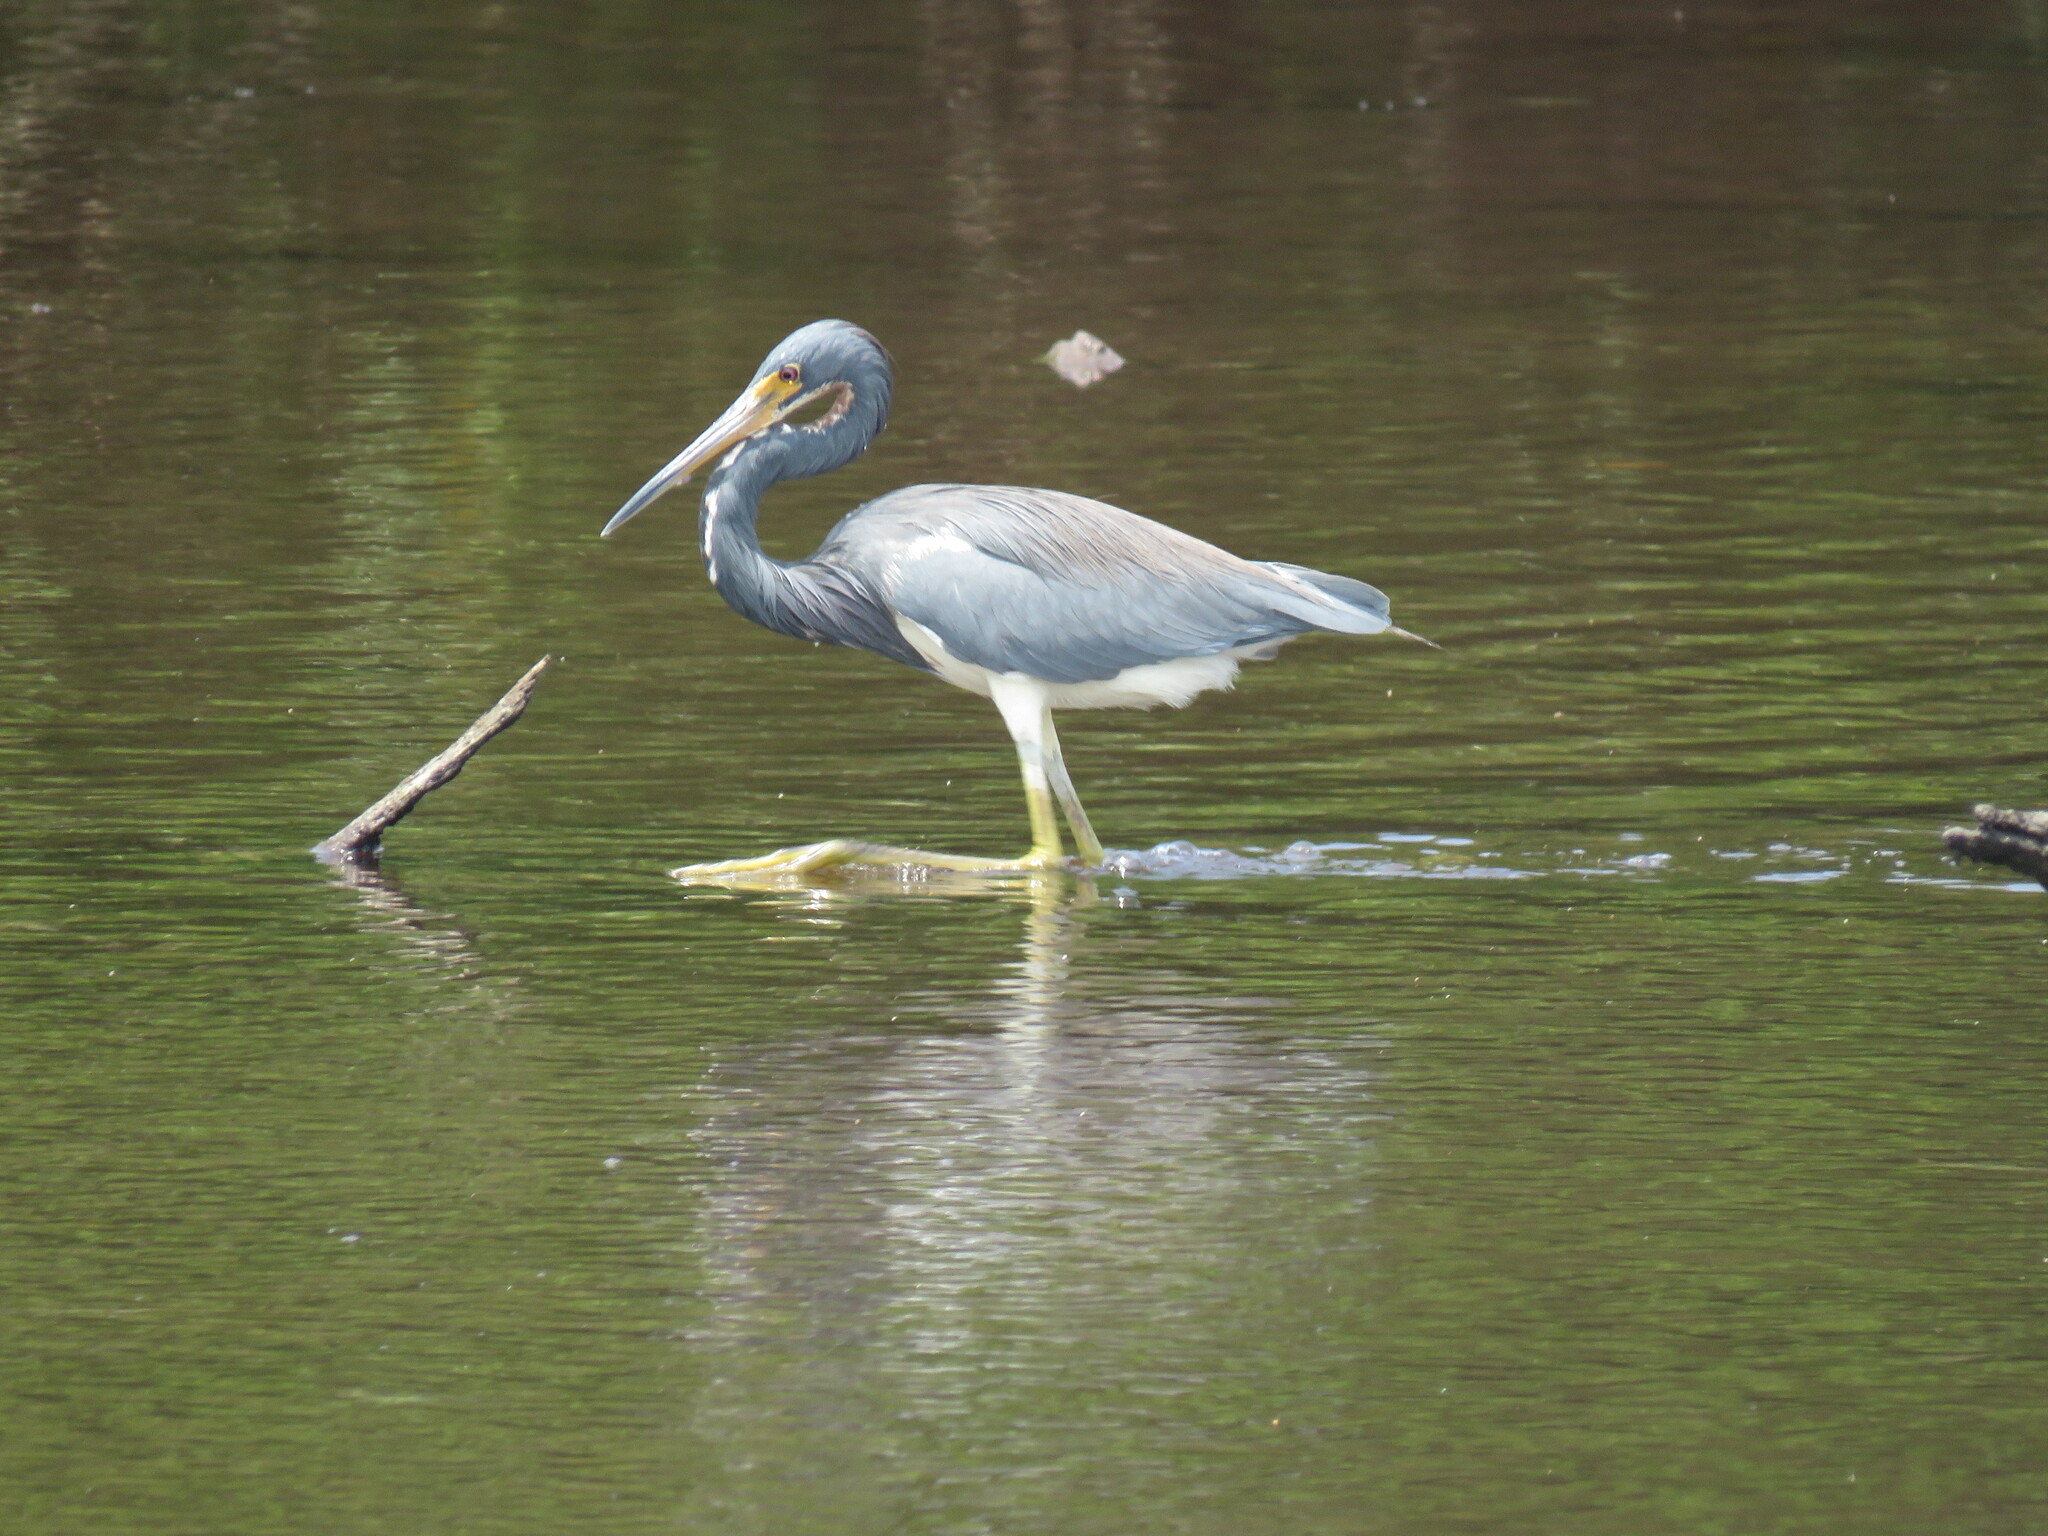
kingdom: Animalia
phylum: Chordata
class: Aves
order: Pelecaniformes
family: Ardeidae
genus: Egretta
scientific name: Egretta tricolor
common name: Tricolored heron
